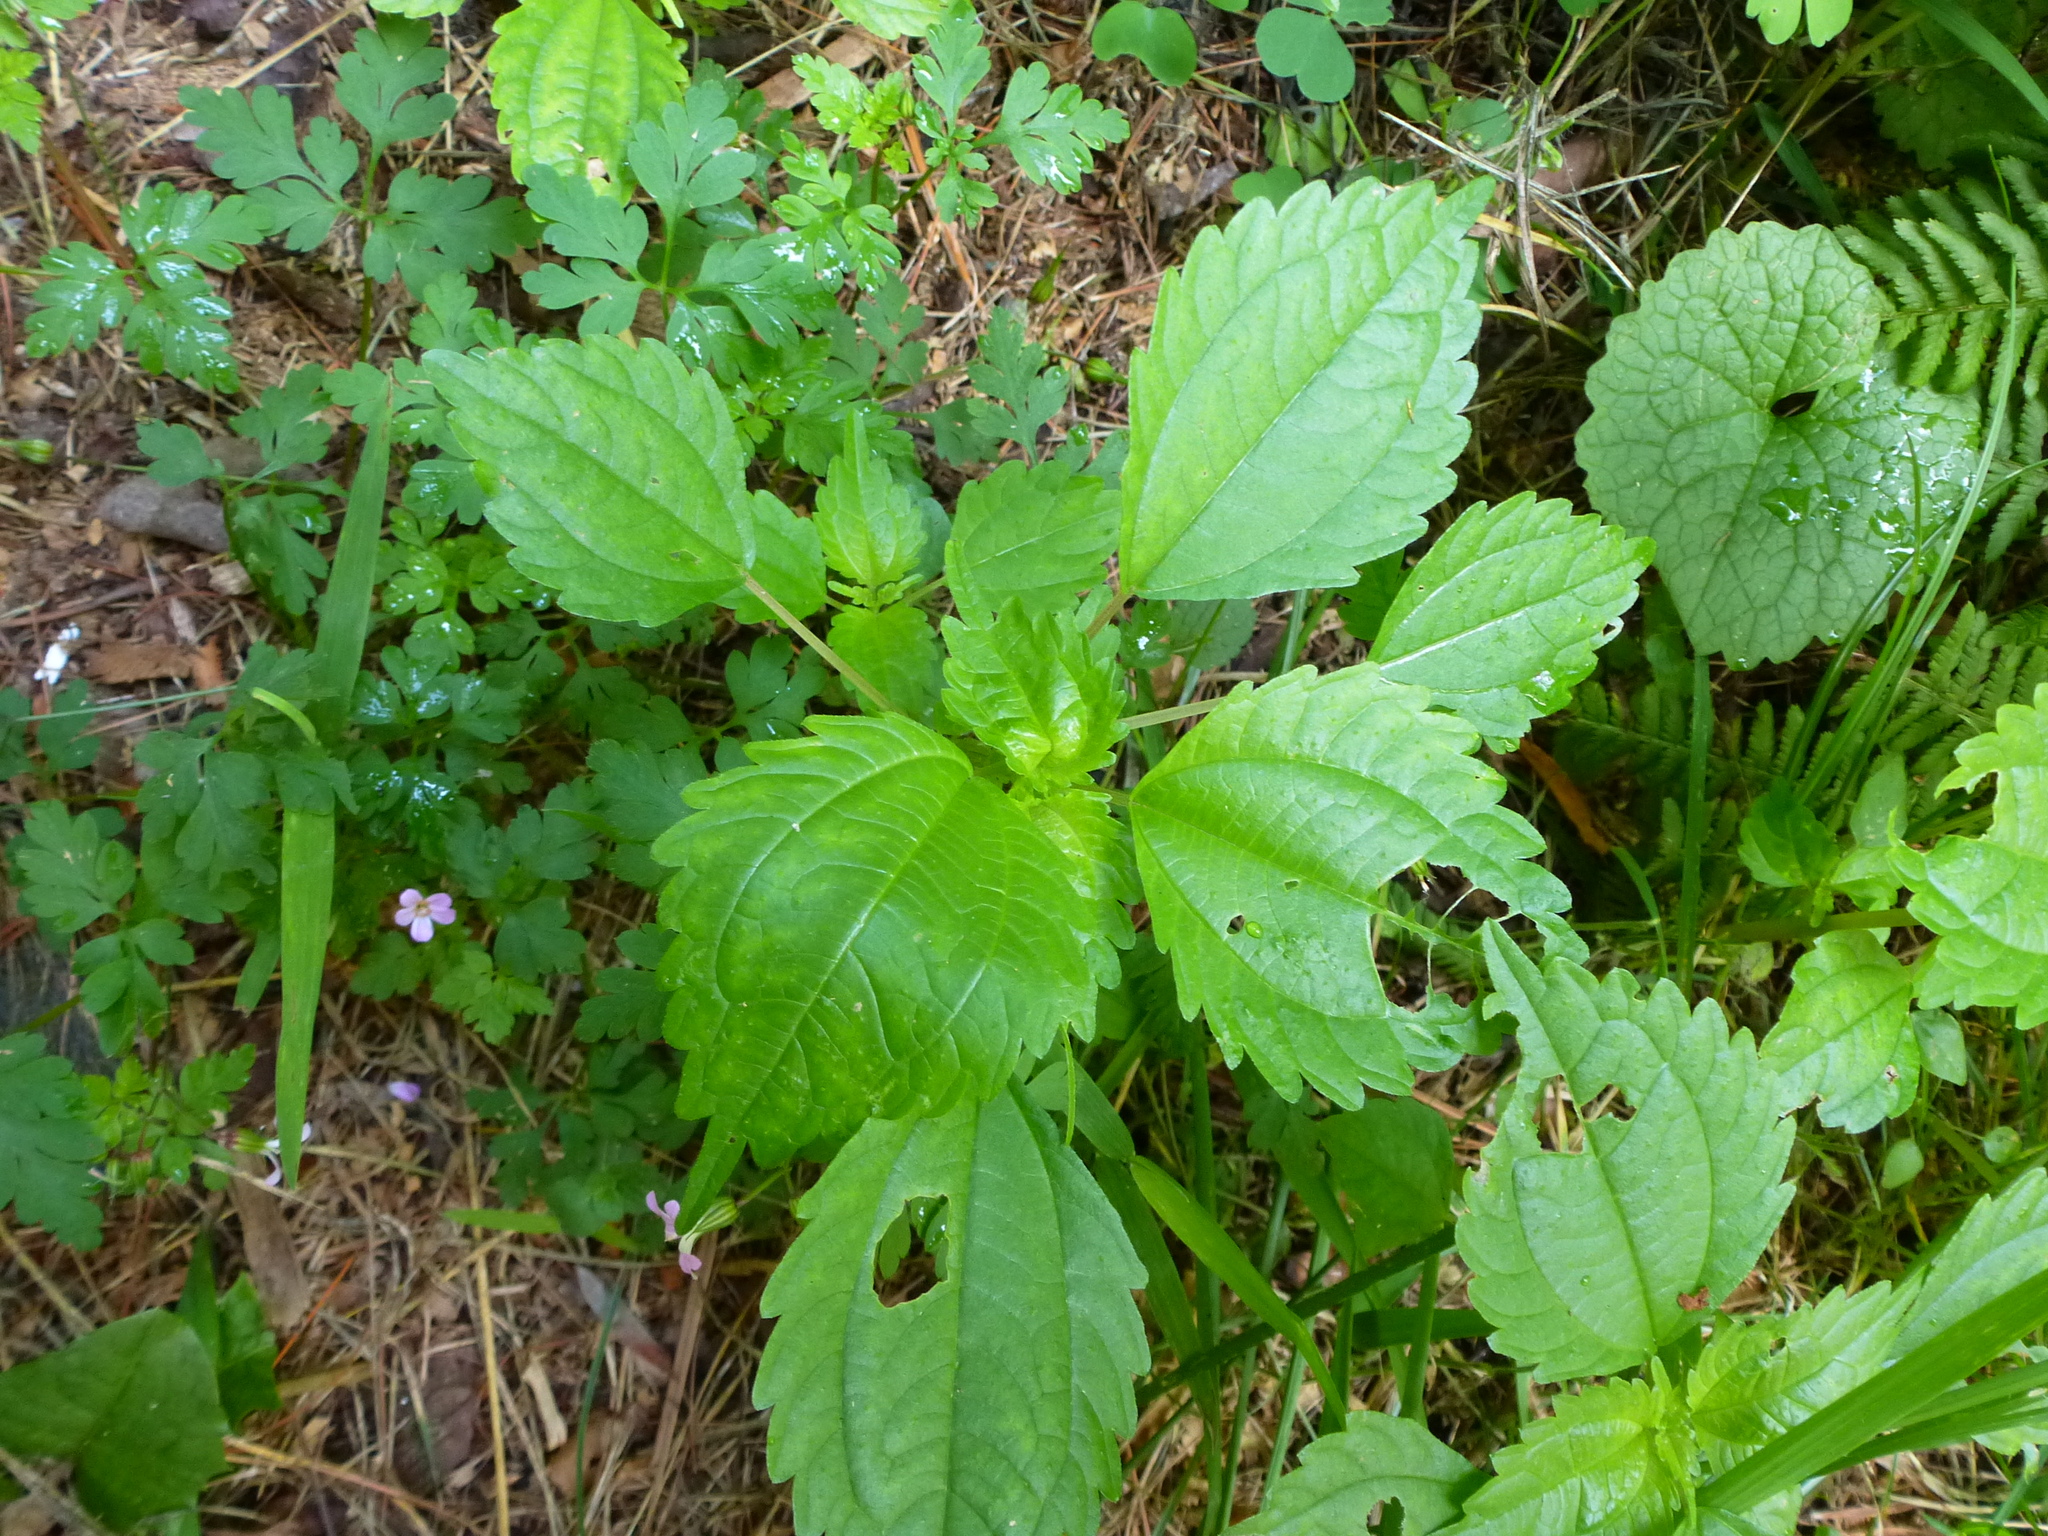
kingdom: Plantae
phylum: Tracheophyta
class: Magnoliopsida
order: Rosales
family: Urticaceae
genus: Pilea
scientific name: Pilea pumila
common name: Clearweed
